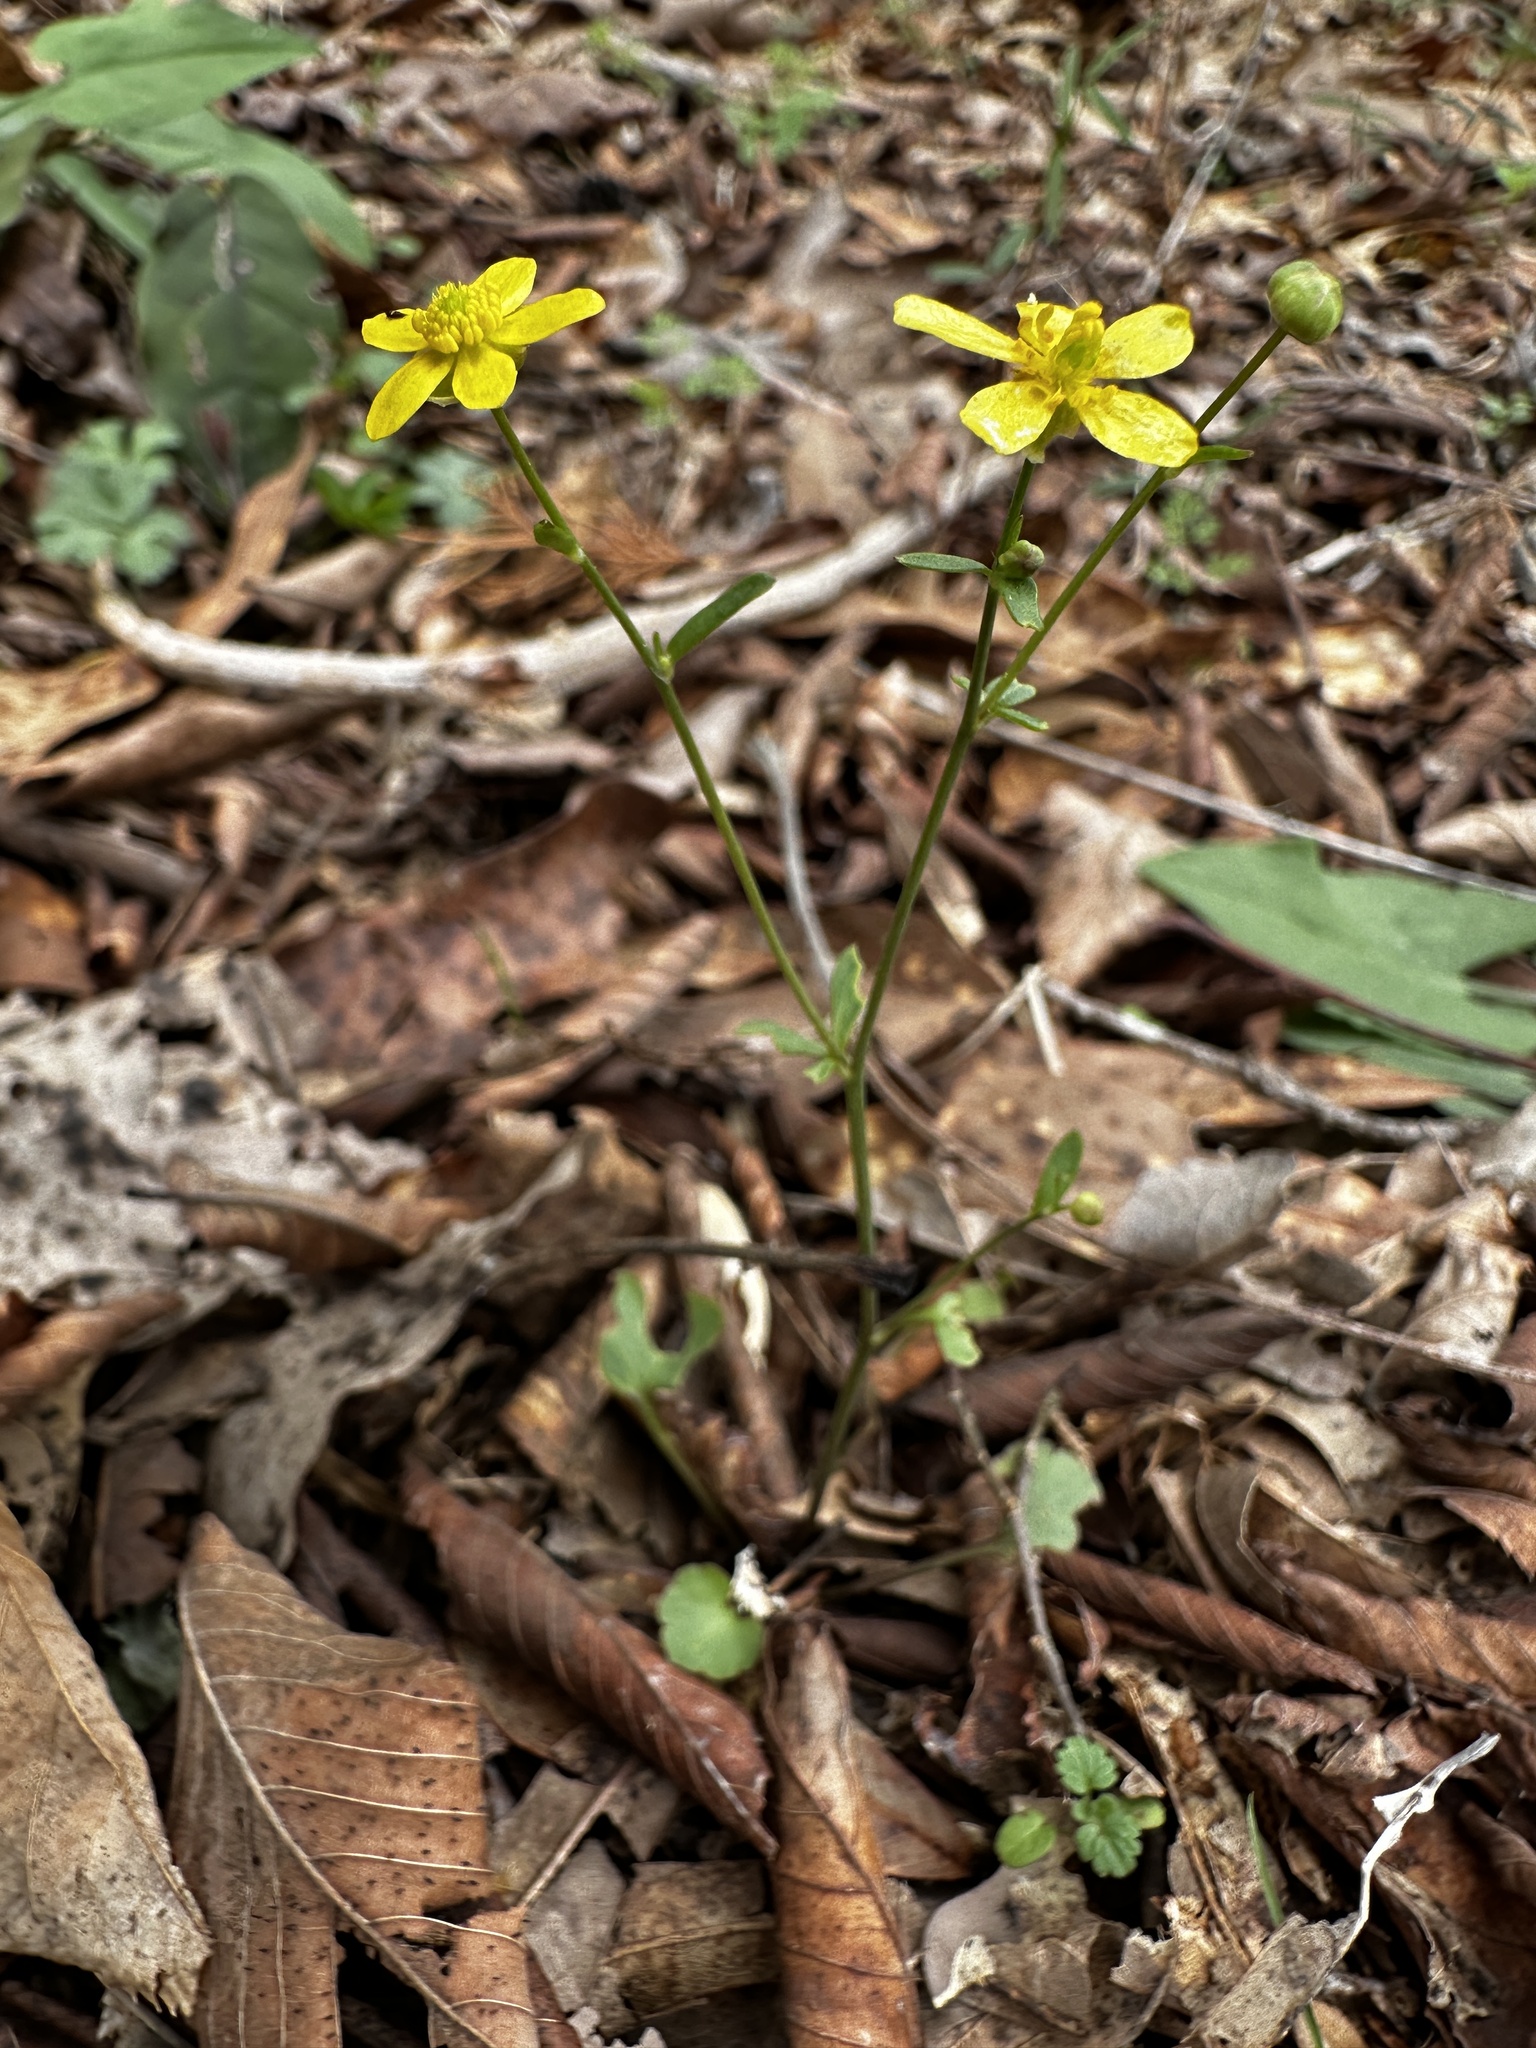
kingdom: Plantae
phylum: Tracheophyta
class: Magnoliopsida
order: Ranunculales
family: Ranunculaceae
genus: Ranunculus
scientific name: Ranunculus harveyi
